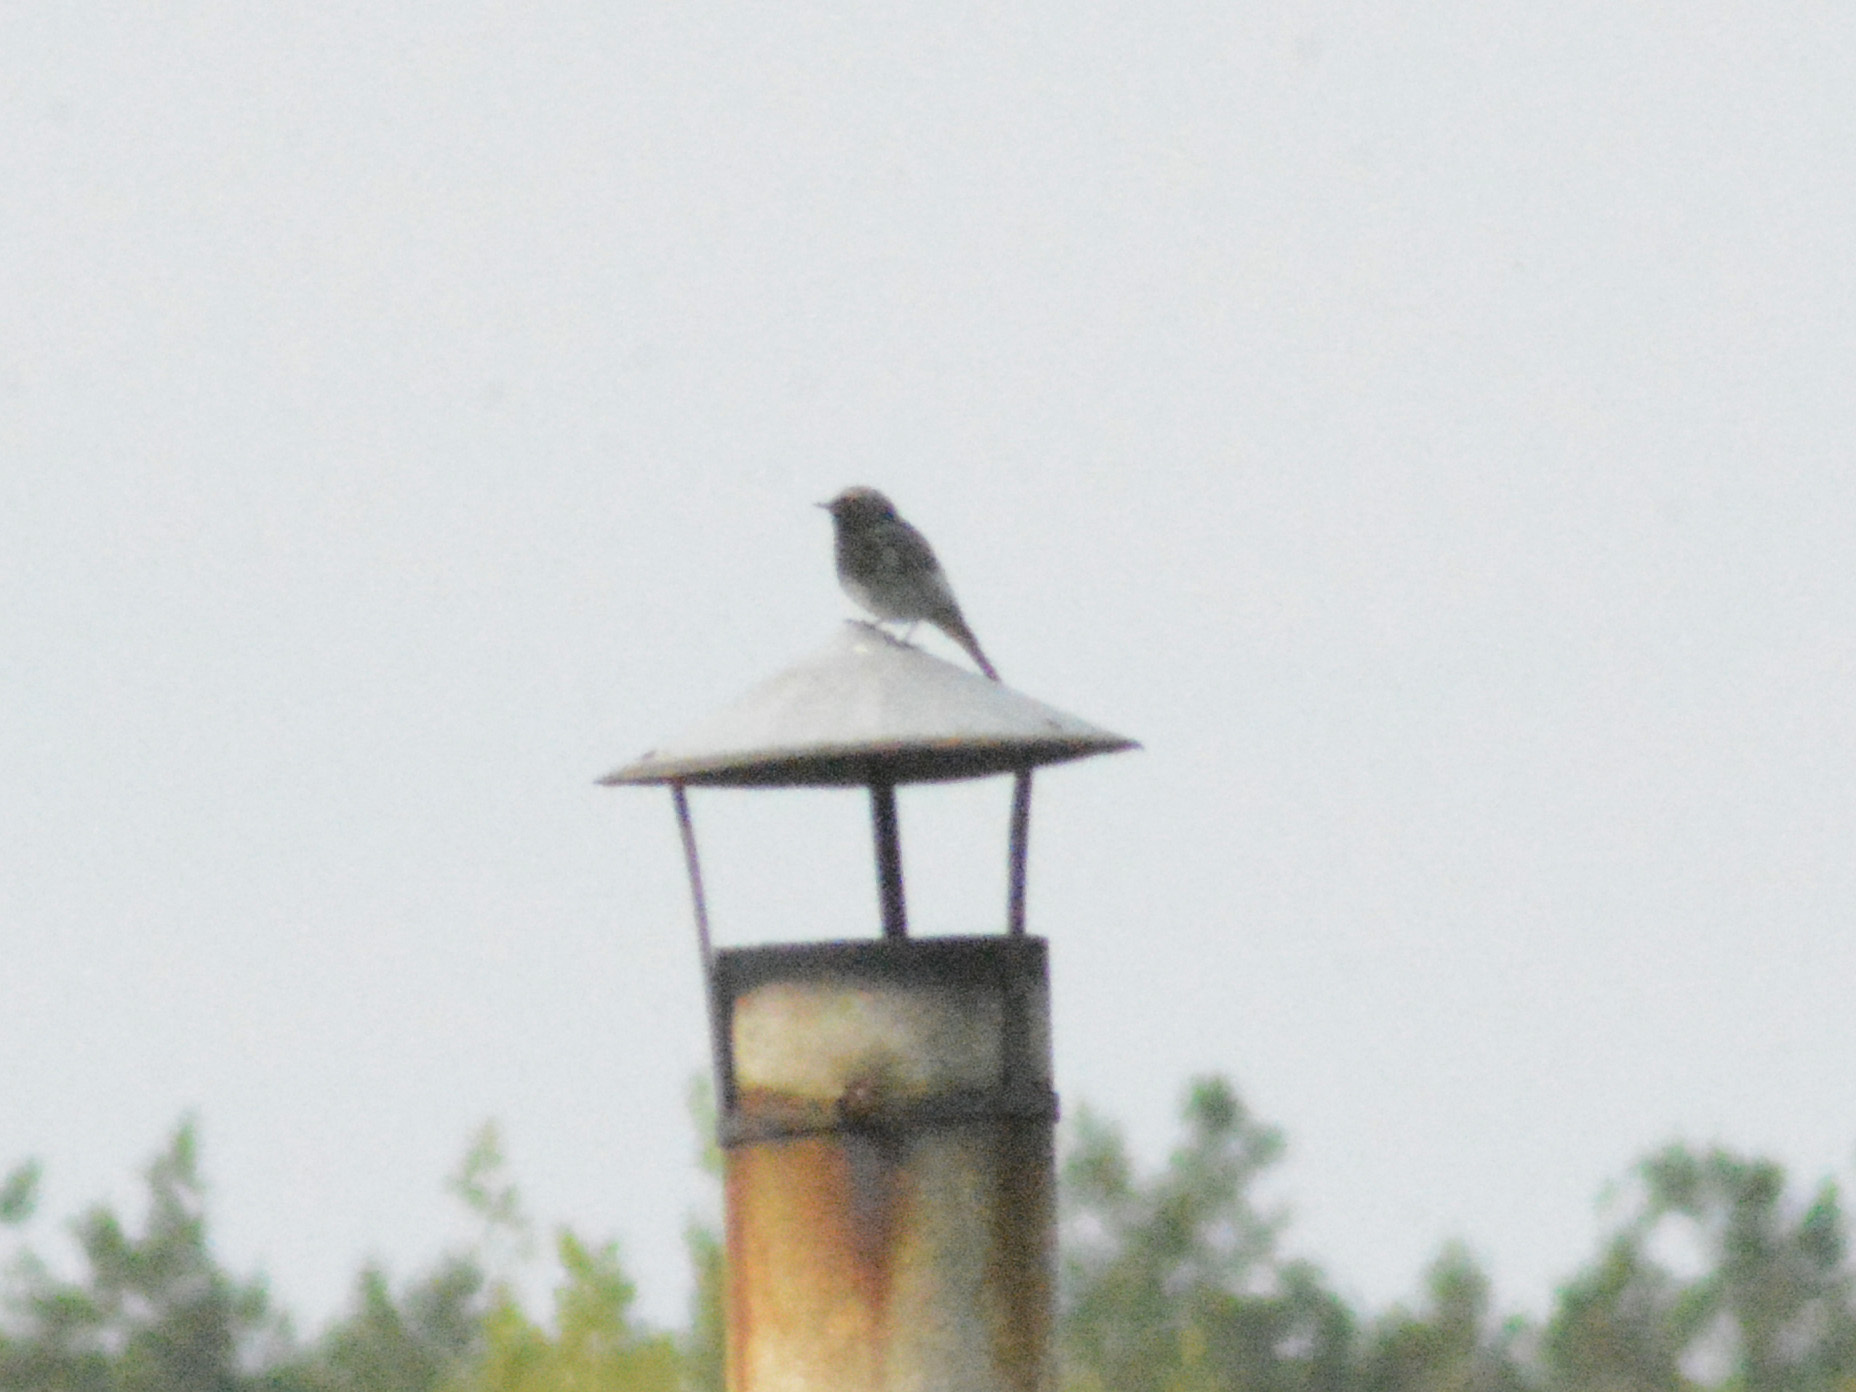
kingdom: Animalia
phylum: Chordata
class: Aves
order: Passeriformes
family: Muscicapidae
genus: Phoenicurus
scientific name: Phoenicurus ochruros
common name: Black redstart
